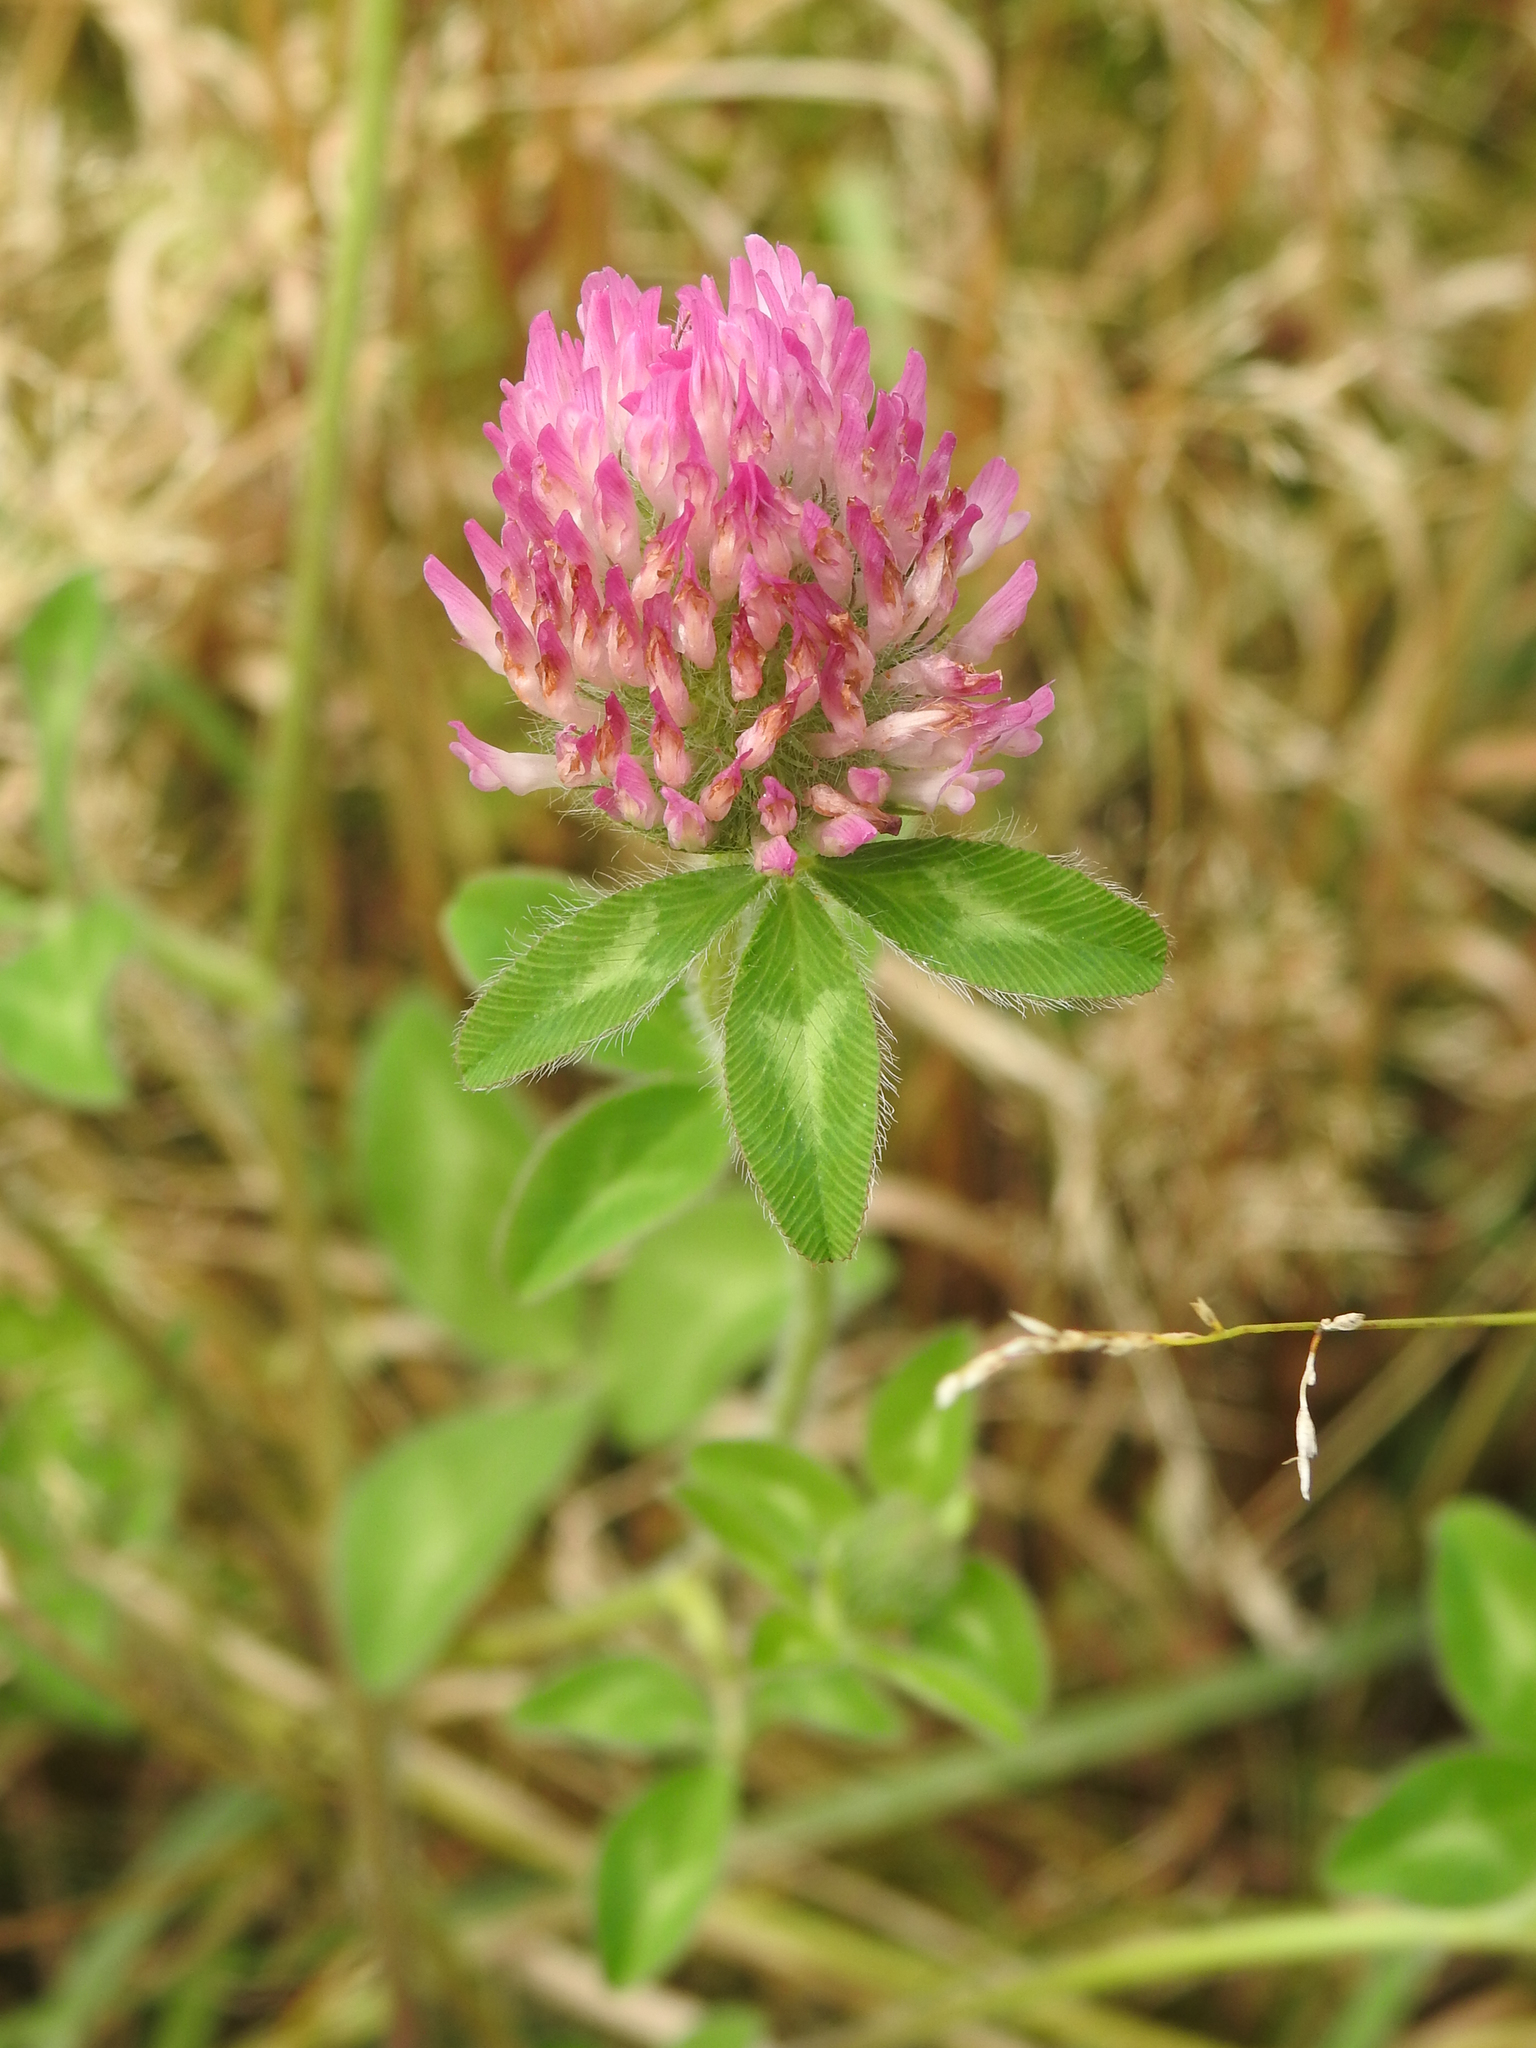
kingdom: Plantae
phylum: Tracheophyta
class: Magnoliopsida
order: Fabales
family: Fabaceae
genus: Trifolium
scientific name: Trifolium pratense
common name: Red clover
